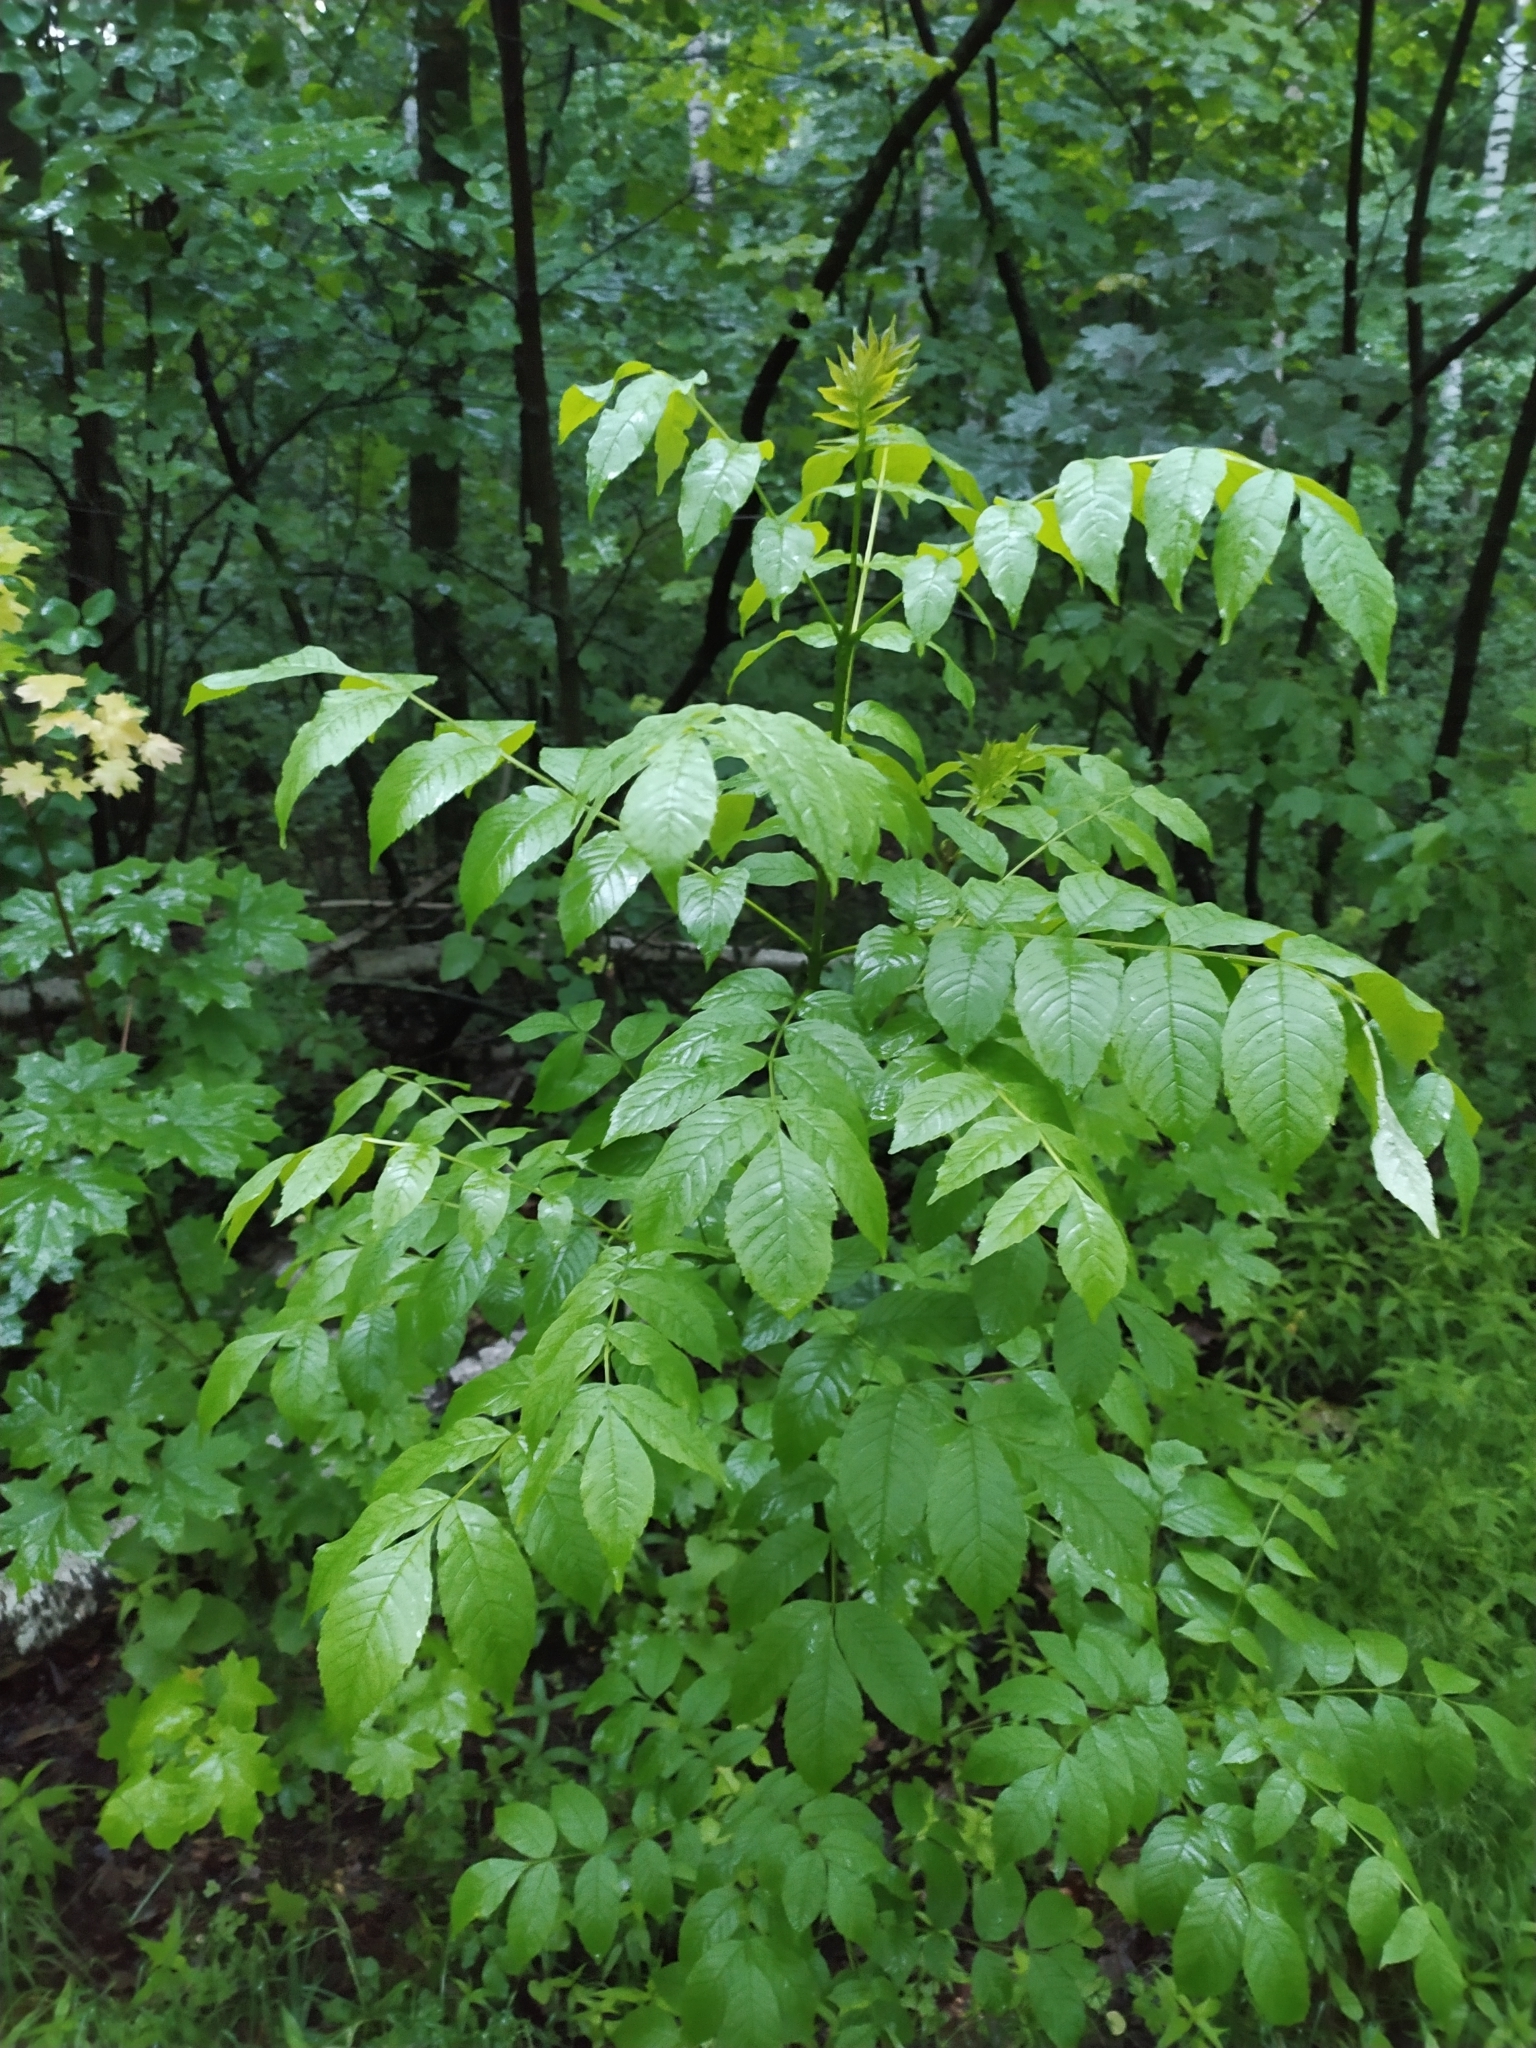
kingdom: Plantae
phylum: Tracheophyta
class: Magnoliopsida
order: Lamiales
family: Oleaceae
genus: Fraxinus
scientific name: Fraxinus excelsior
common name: European ash
